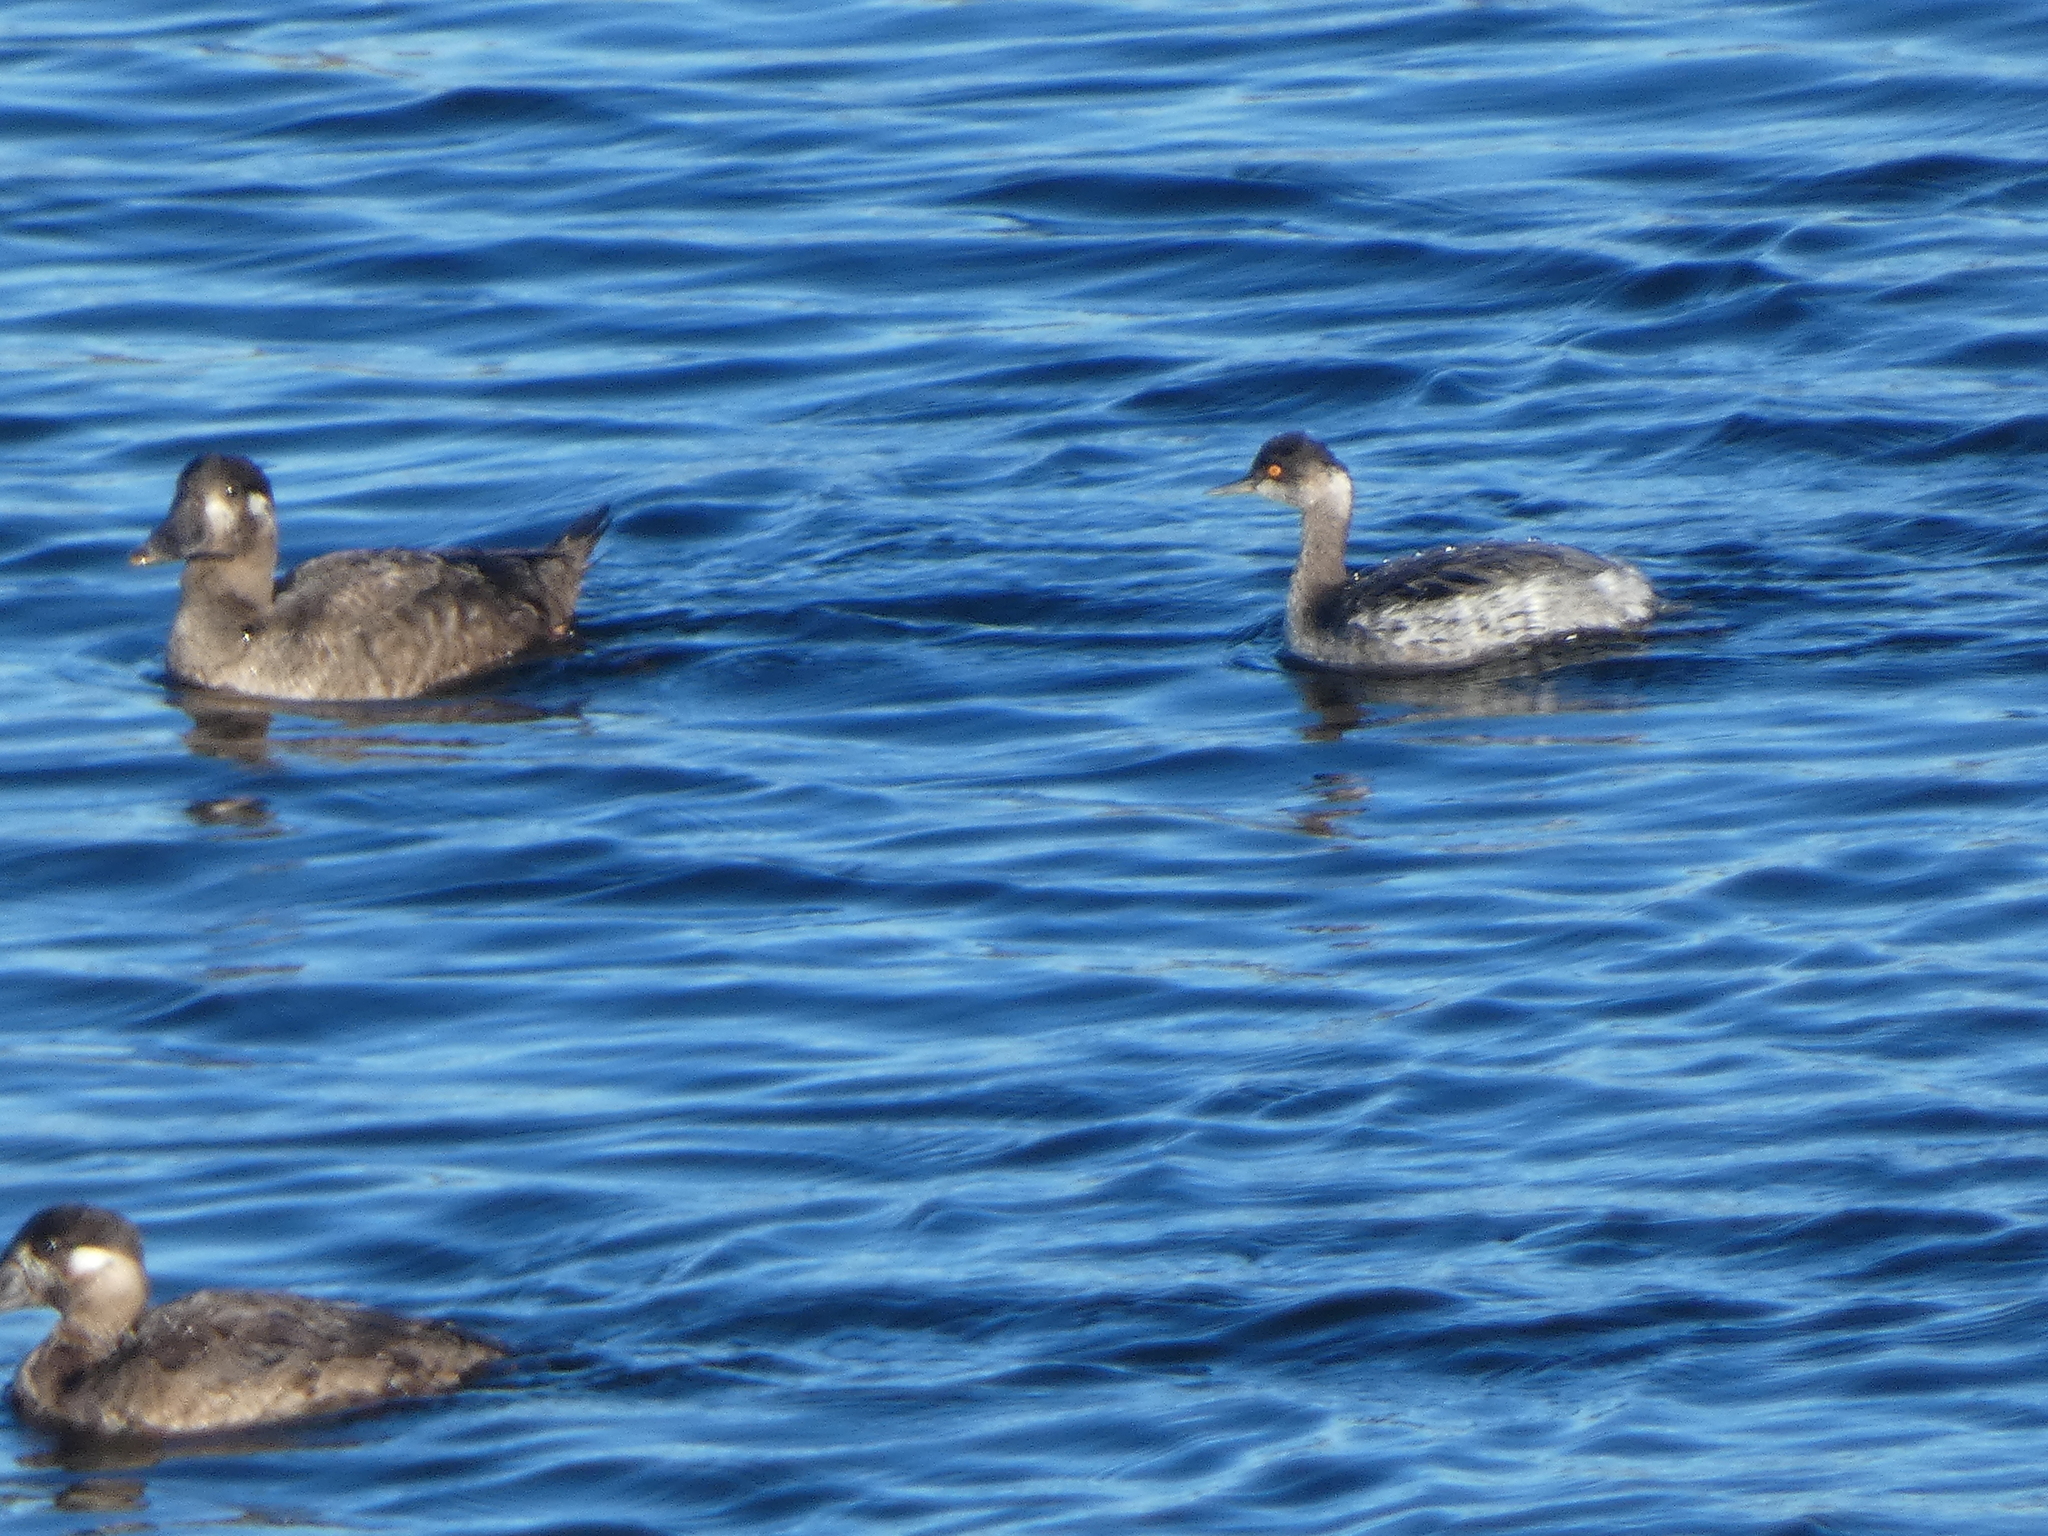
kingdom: Animalia
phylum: Chordata
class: Aves
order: Podicipediformes
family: Podicipedidae
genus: Podiceps
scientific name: Podiceps nigricollis
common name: Black-necked grebe
